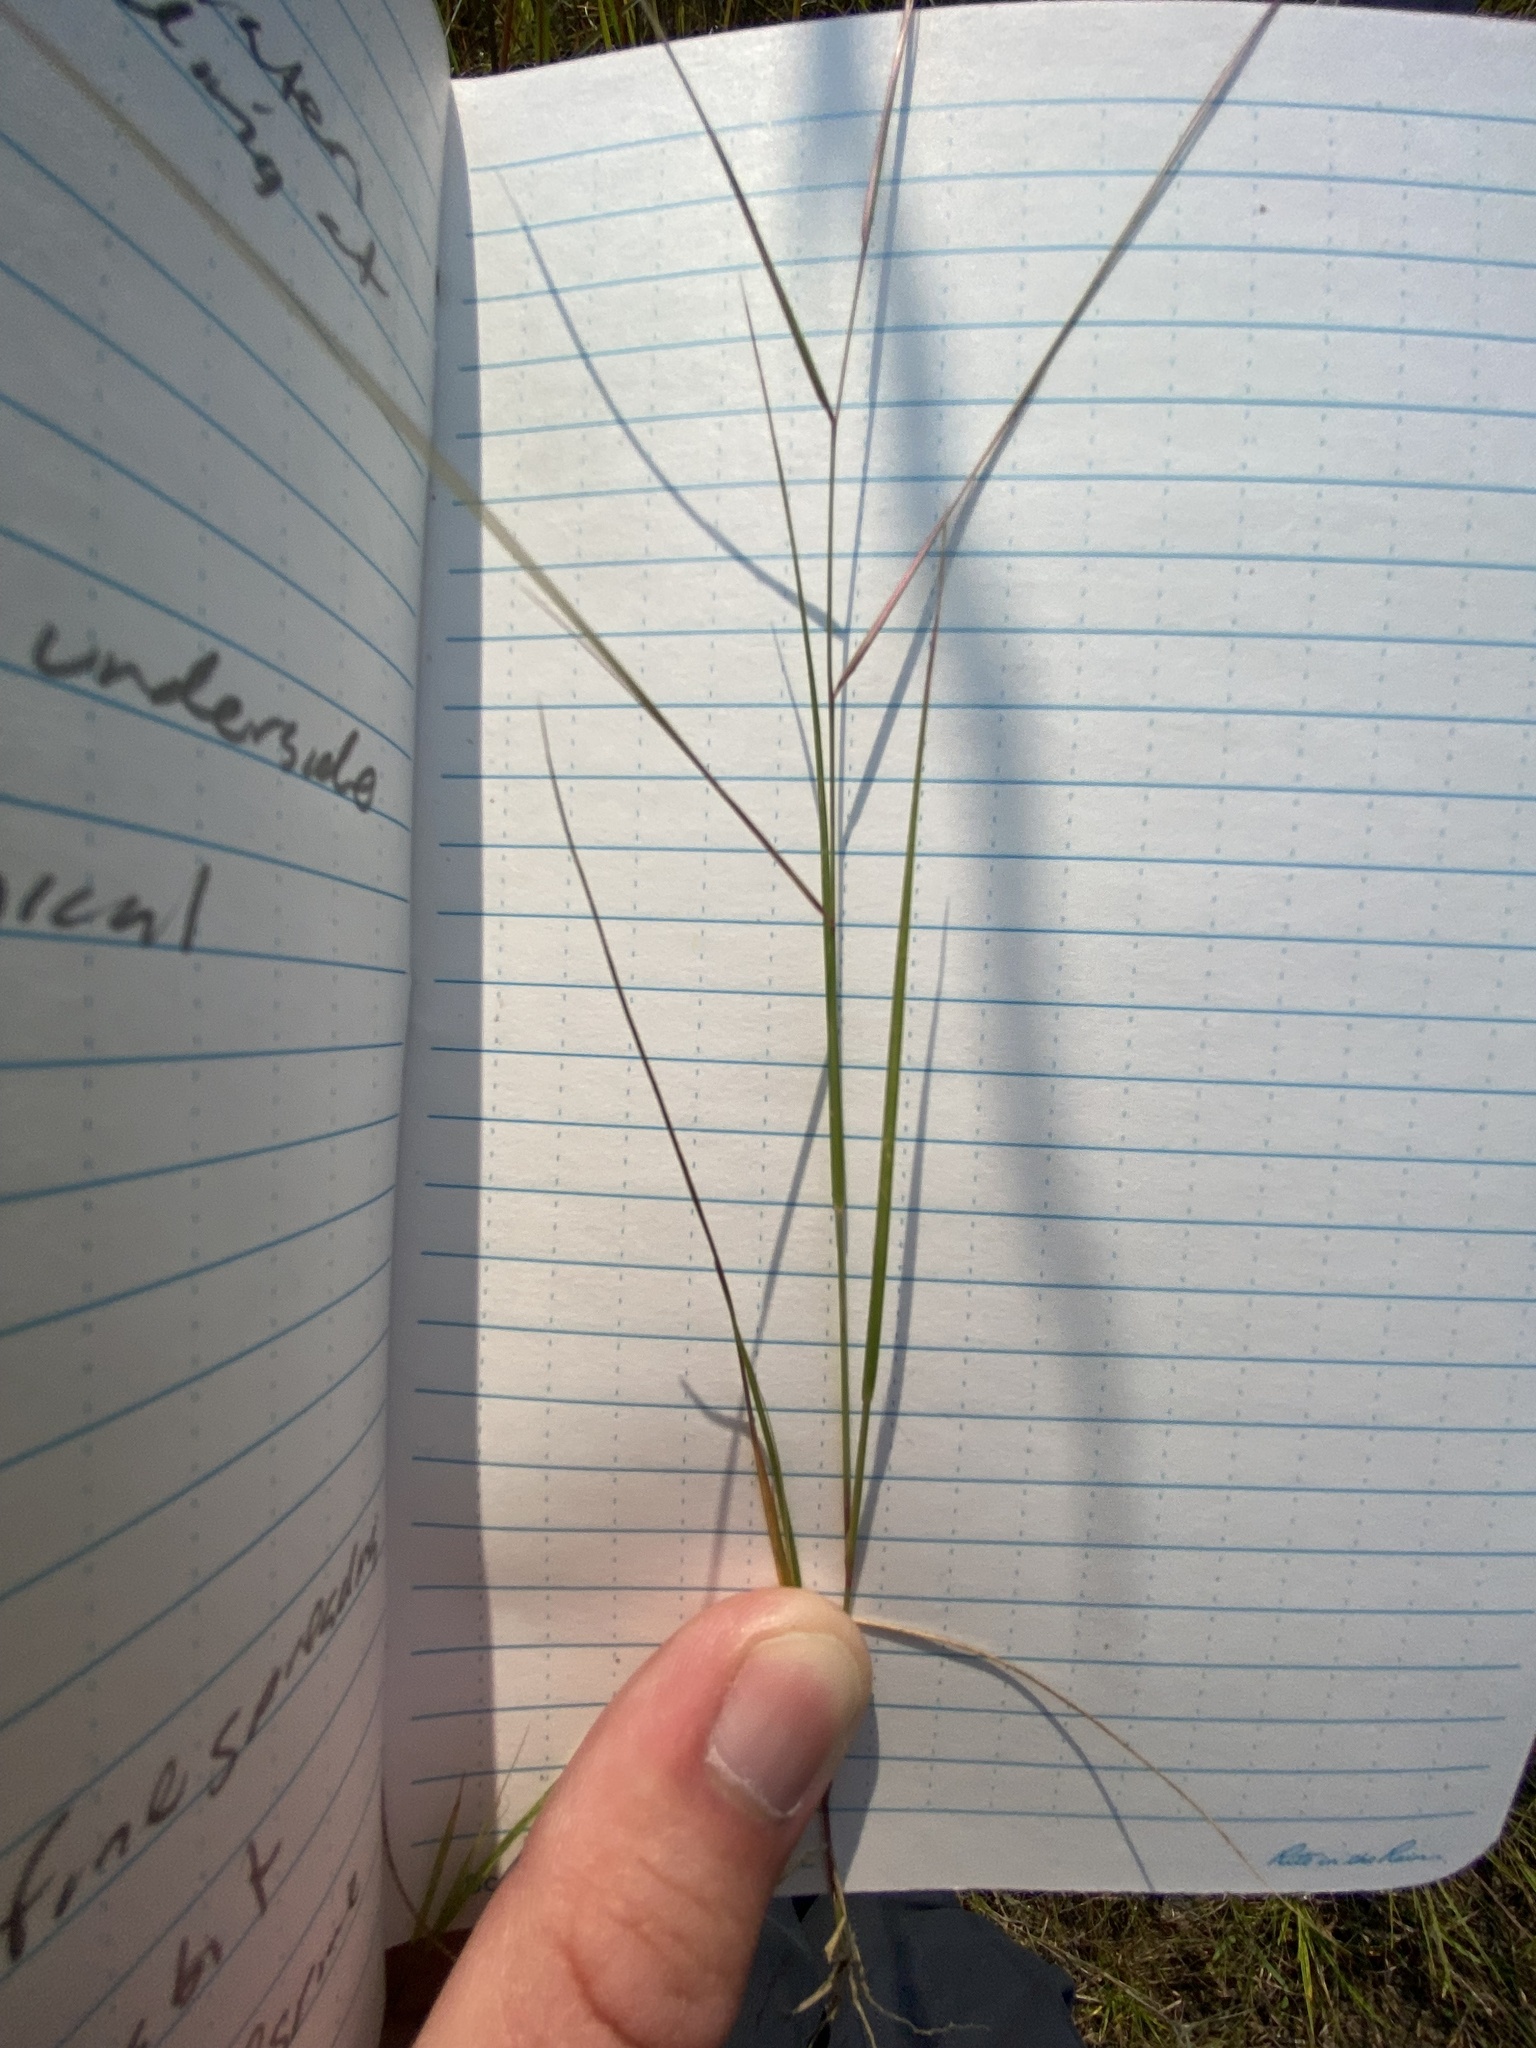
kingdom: Plantae
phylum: Tracheophyta
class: Liliopsida
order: Poales
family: Poaceae
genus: Aristida
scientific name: Aristida oligantha
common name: Few-flowered aristida
